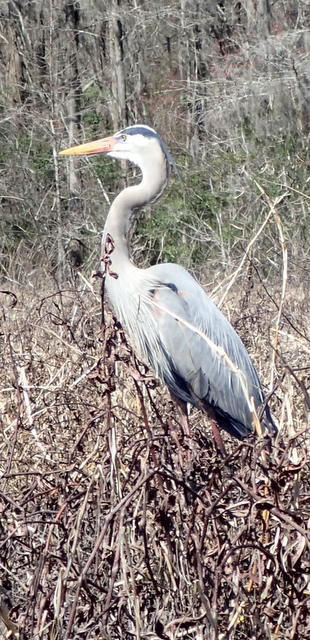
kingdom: Animalia
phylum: Chordata
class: Aves
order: Pelecaniformes
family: Ardeidae
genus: Ardea
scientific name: Ardea herodias
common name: Great blue heron
